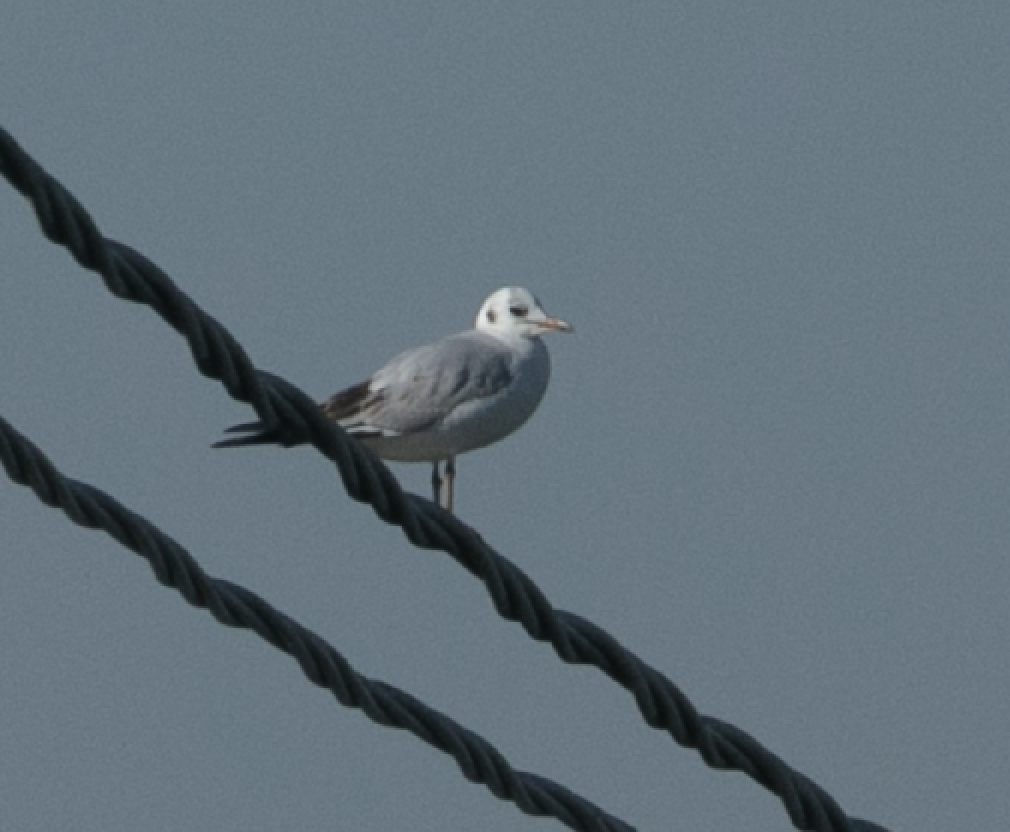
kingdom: Animalia
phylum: Chordata
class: Aves
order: Charadriiformes
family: Laridae
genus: Chroicocephalus
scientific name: Chroicocephalus ridibundus
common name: Black-headed gull
